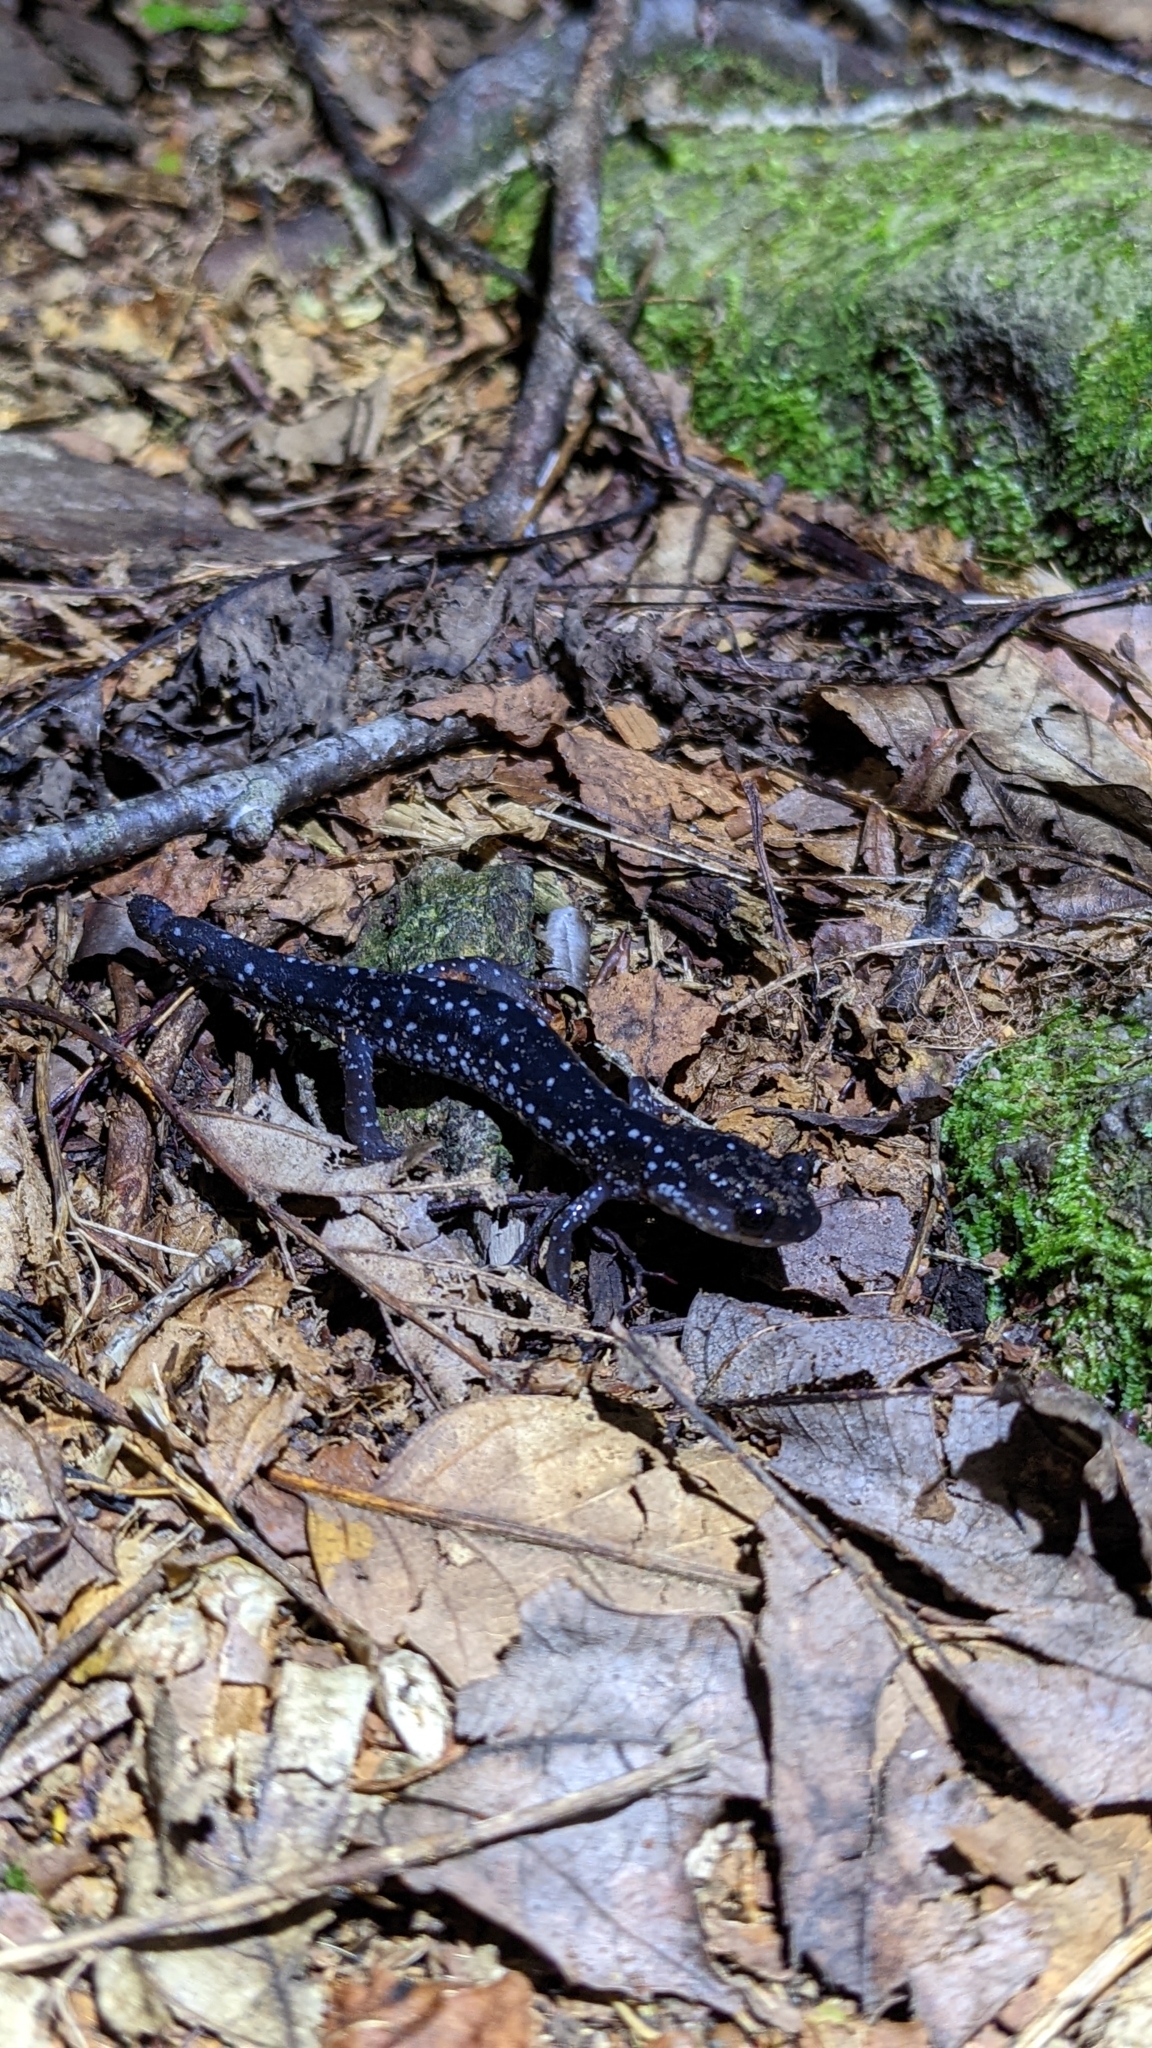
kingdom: Animalia
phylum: Chordata
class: Amphibia
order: Caudata
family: Plethodontidae
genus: Plethodon
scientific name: Plethodon cylindraceus
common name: White-spotted slimy salamander
